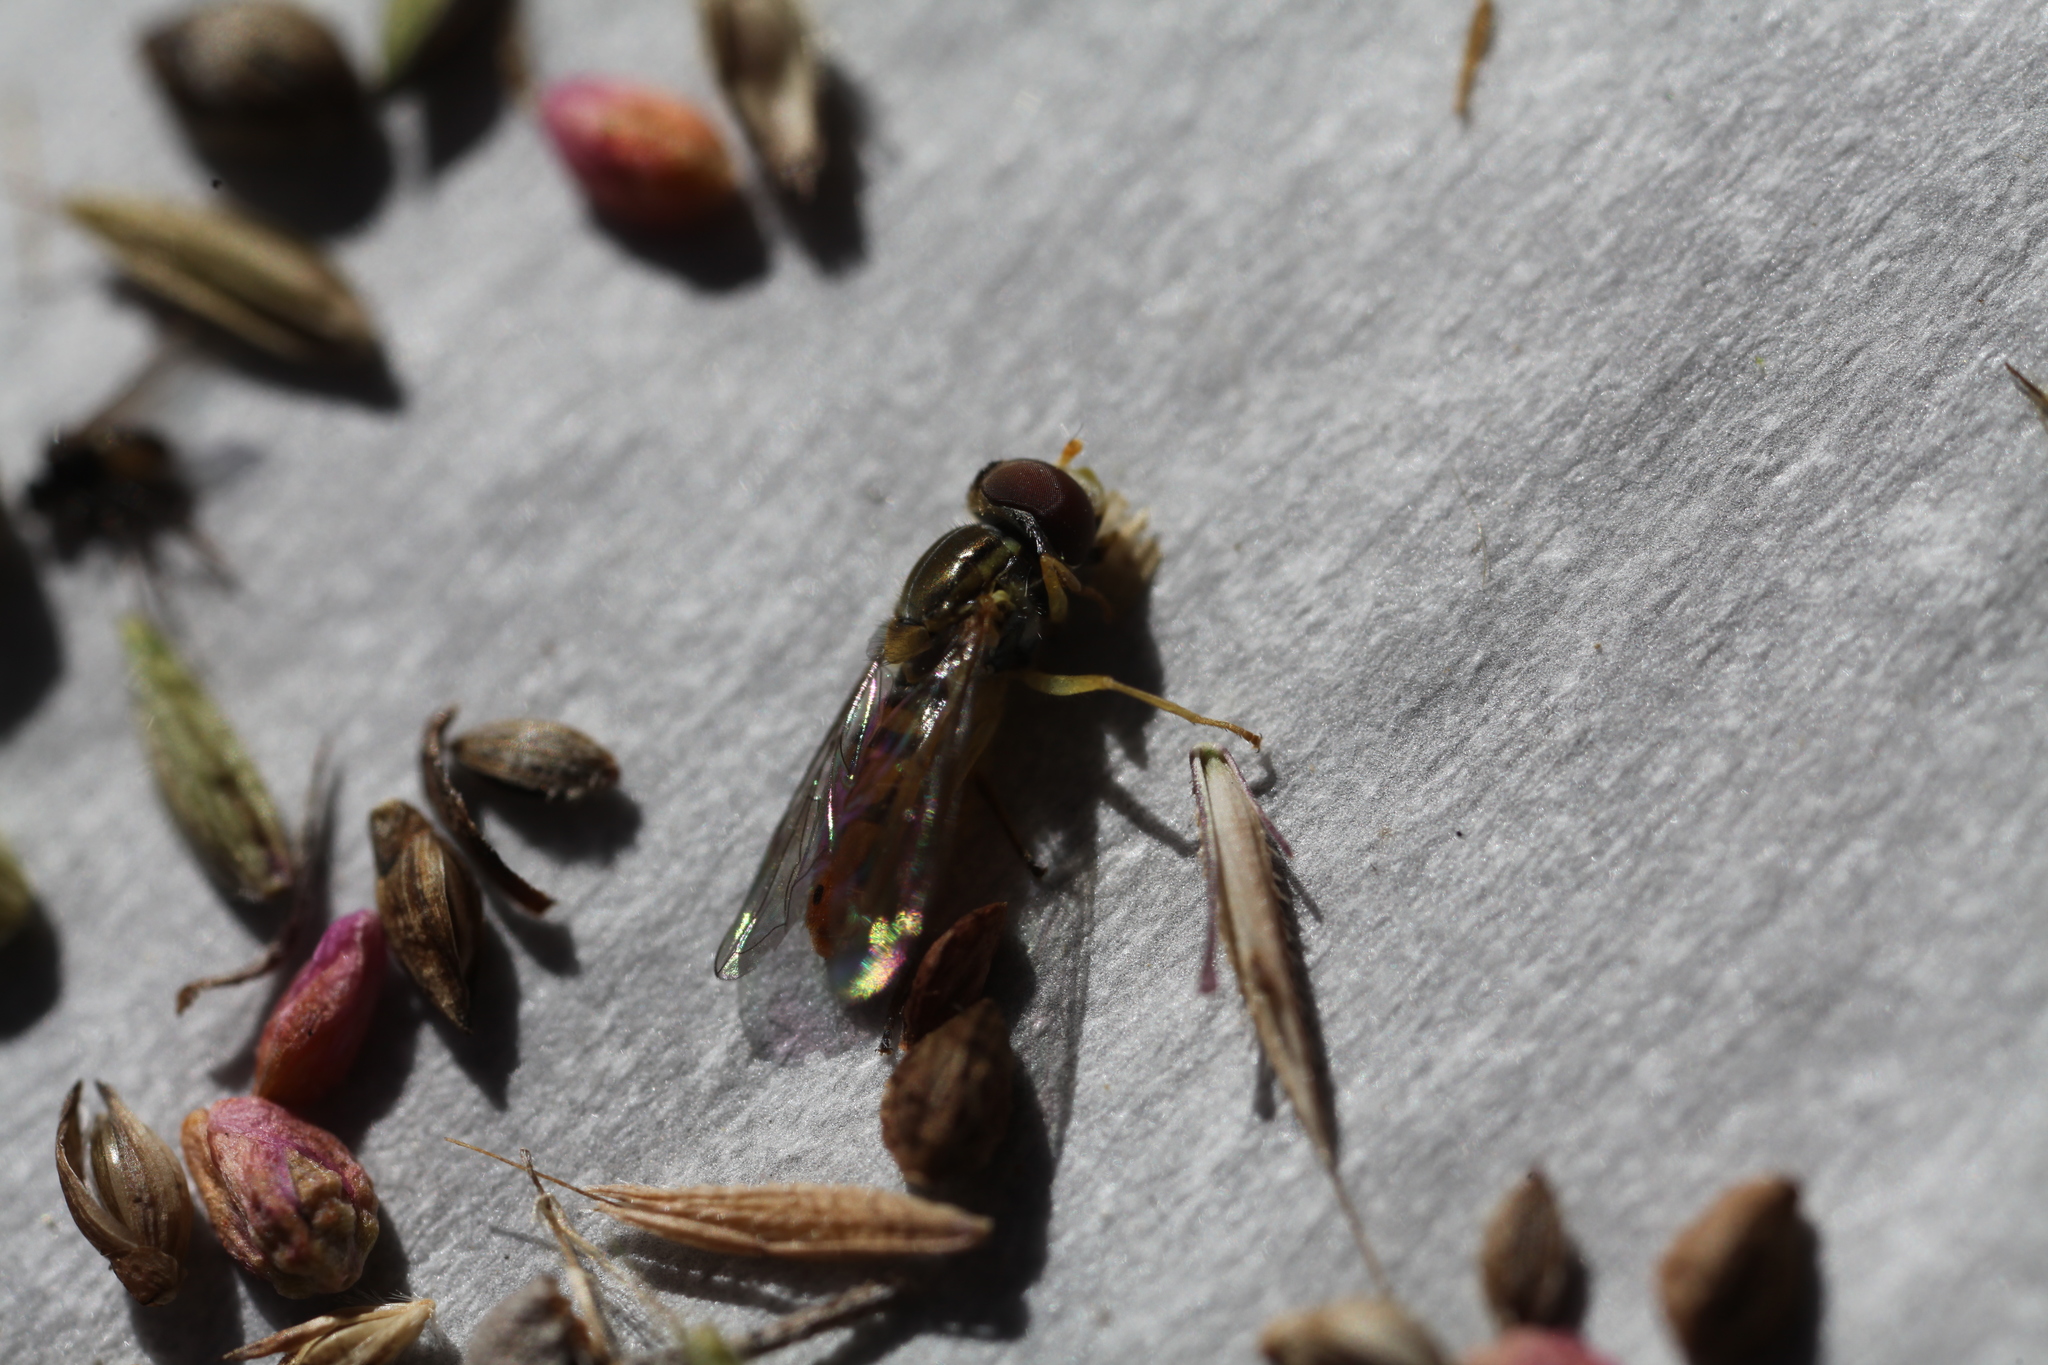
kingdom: Animalia
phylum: Arthropoda
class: Insecta
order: Diptera
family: Syrphidae
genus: Toxomerus
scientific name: Toxomerus marginatus
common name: Syrphid fly
